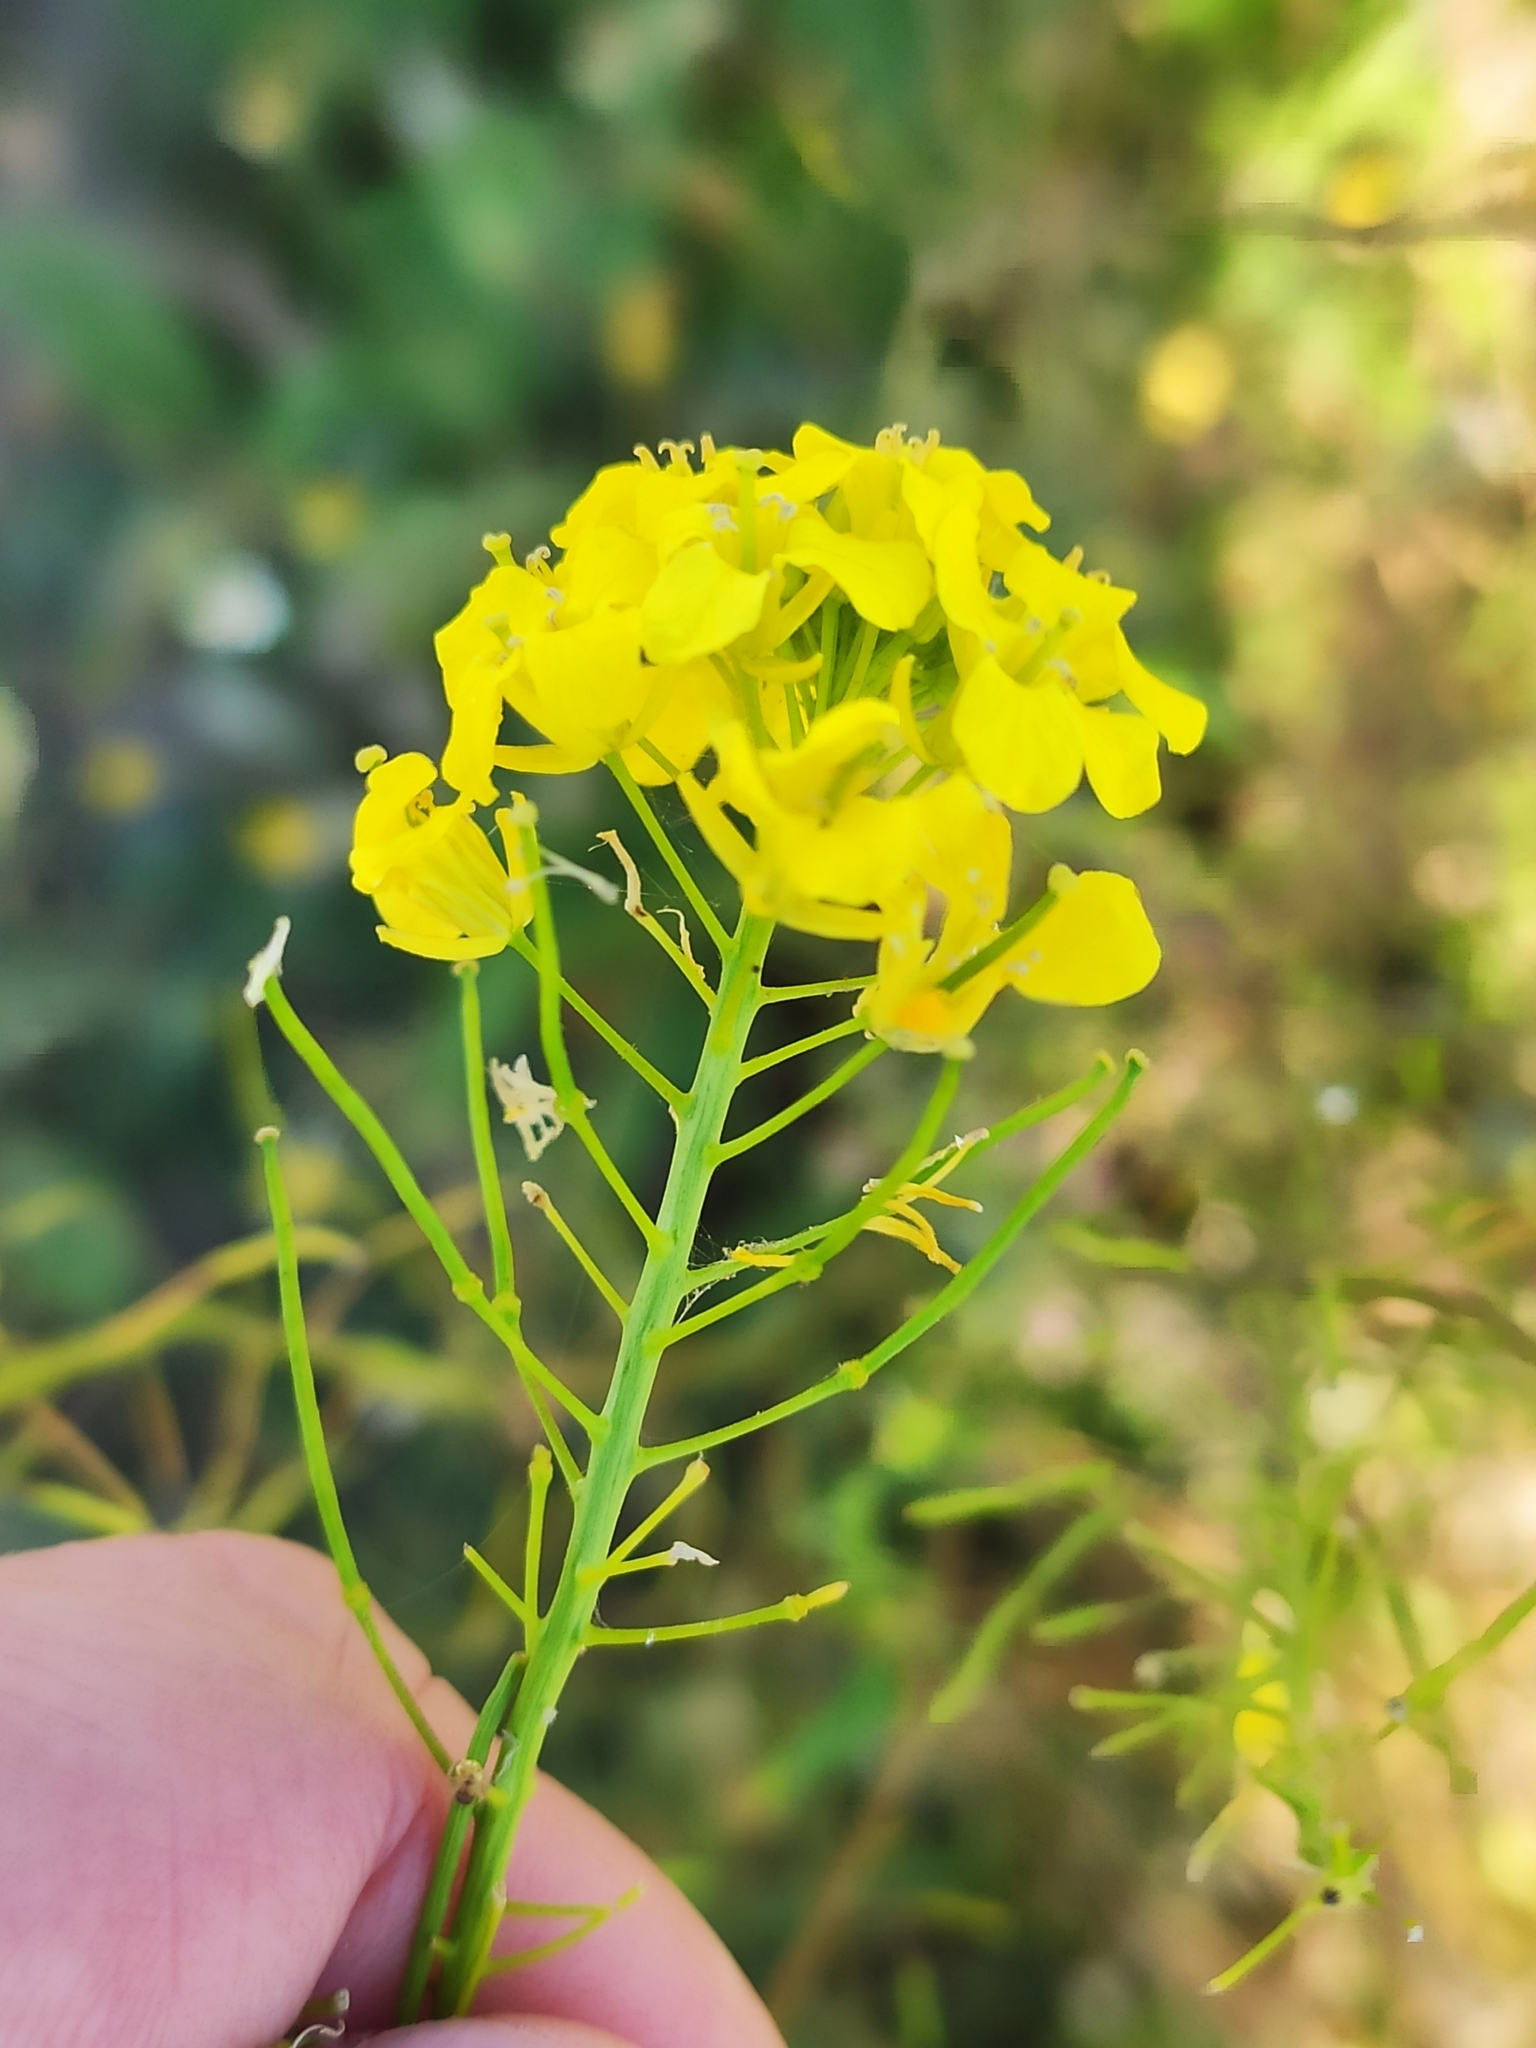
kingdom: Plantae
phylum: Tracheophyta
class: Magnoliopsida
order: Brassicales
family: Brassicaceae
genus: Sisymbrium
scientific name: Sisymbrium loeselii
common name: False london-rocket
